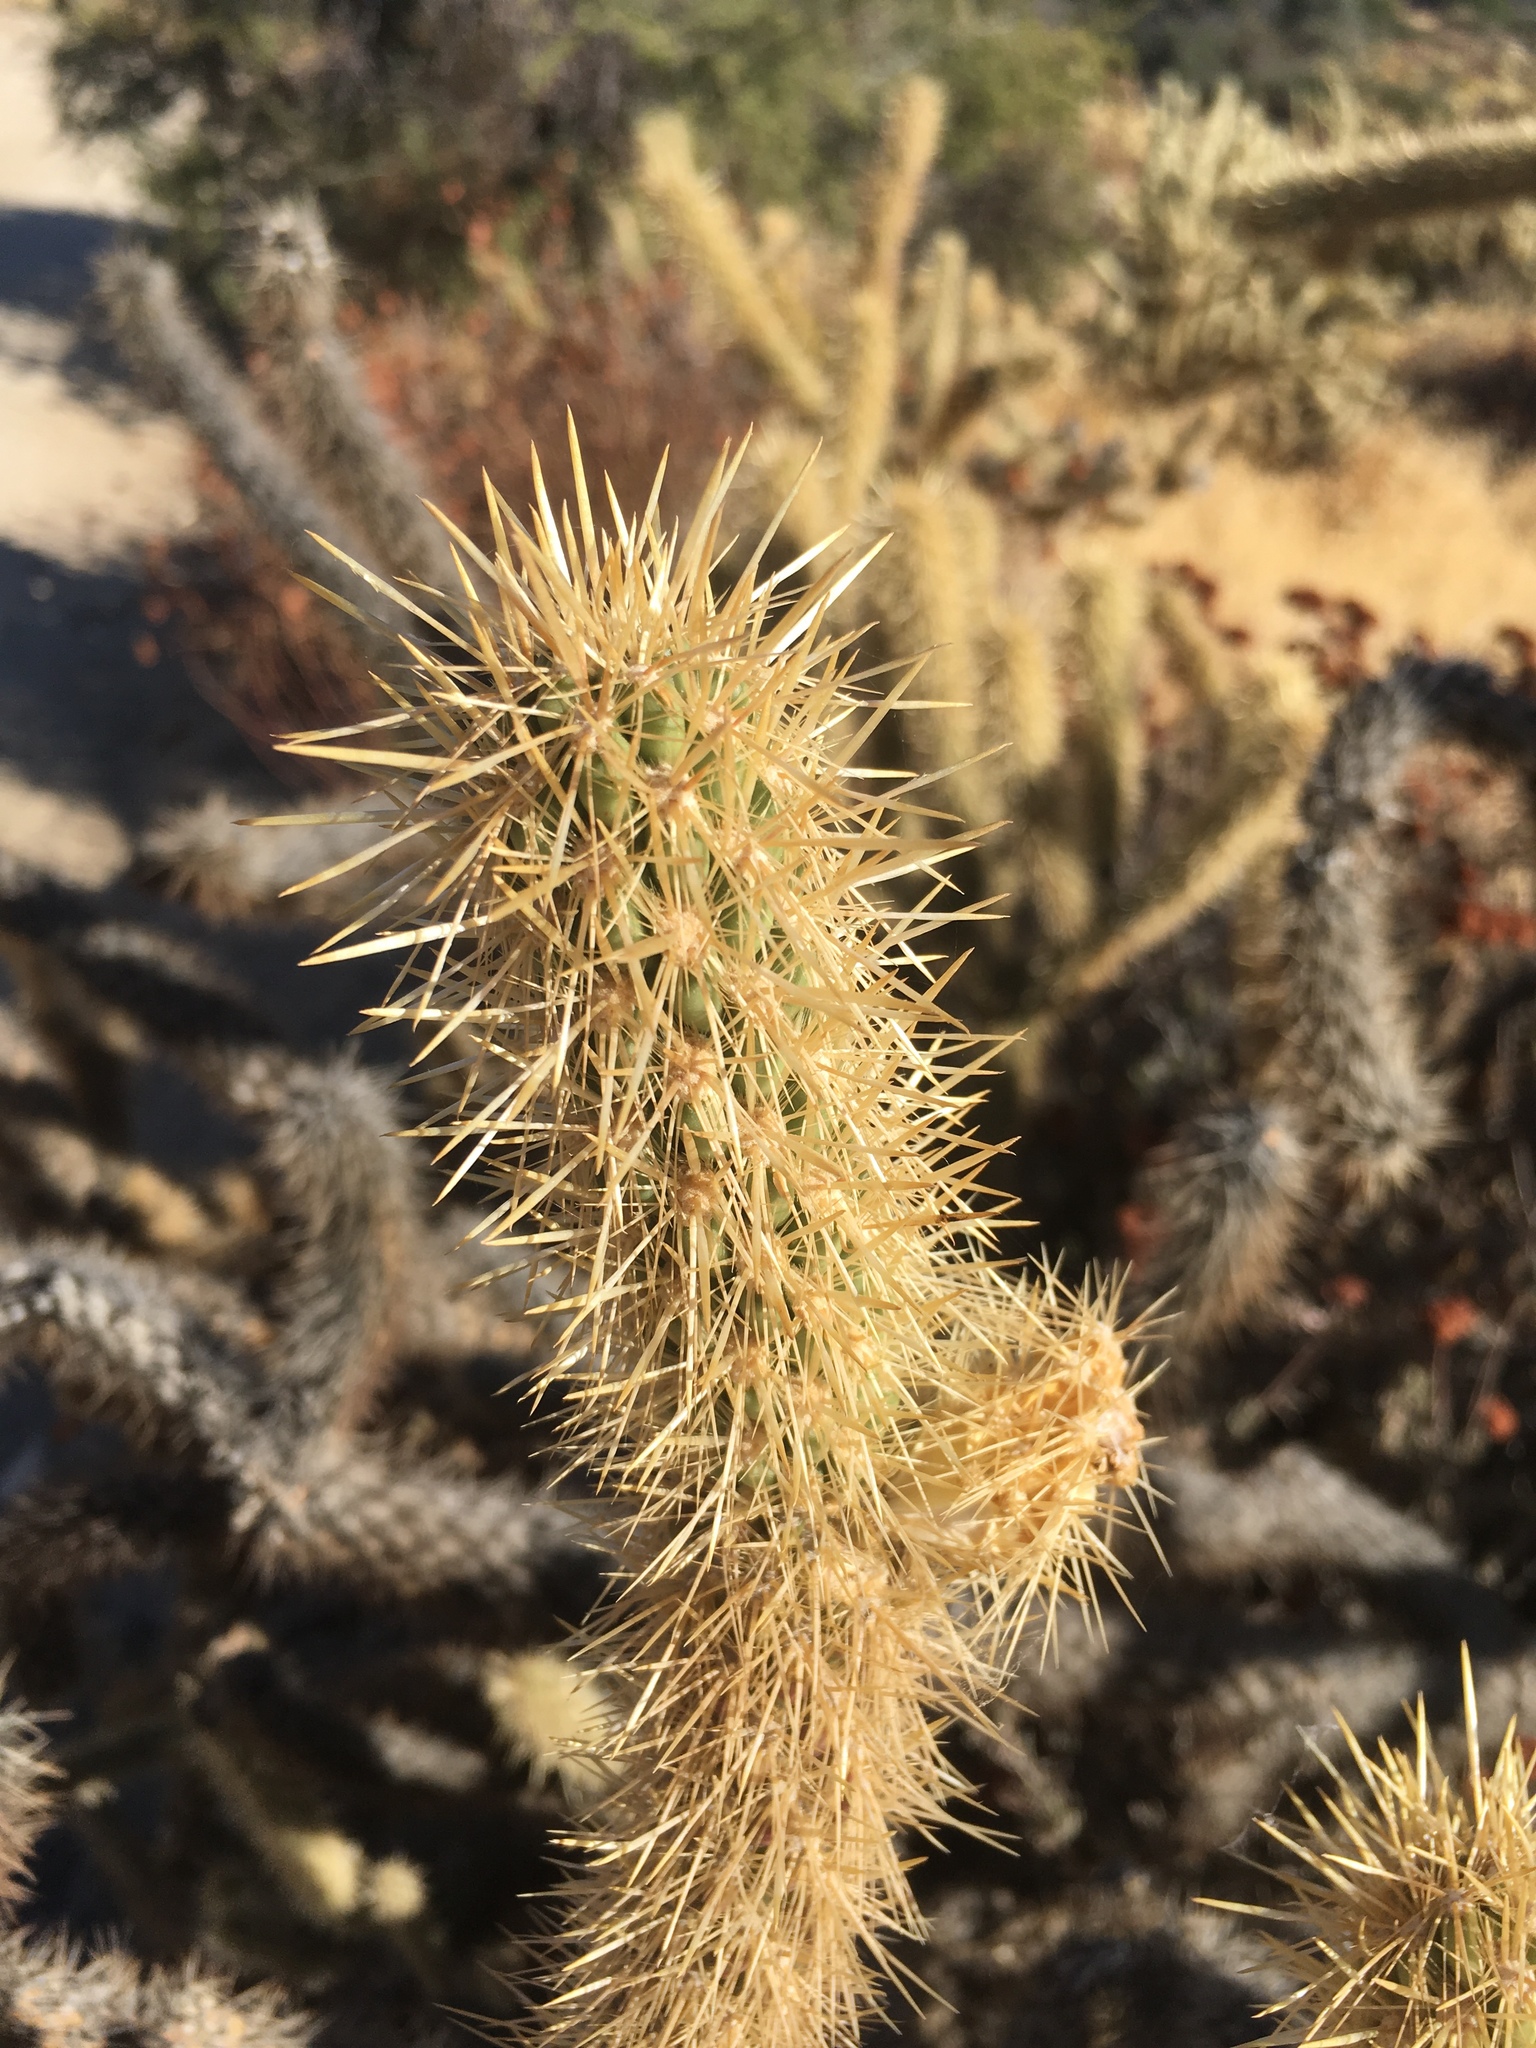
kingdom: Plantae
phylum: Tracheophyta
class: Magnoliopsida
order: Caryophyllales
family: Cactaceae
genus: Cylindropuntia
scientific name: Cylindropuntia ganderi
